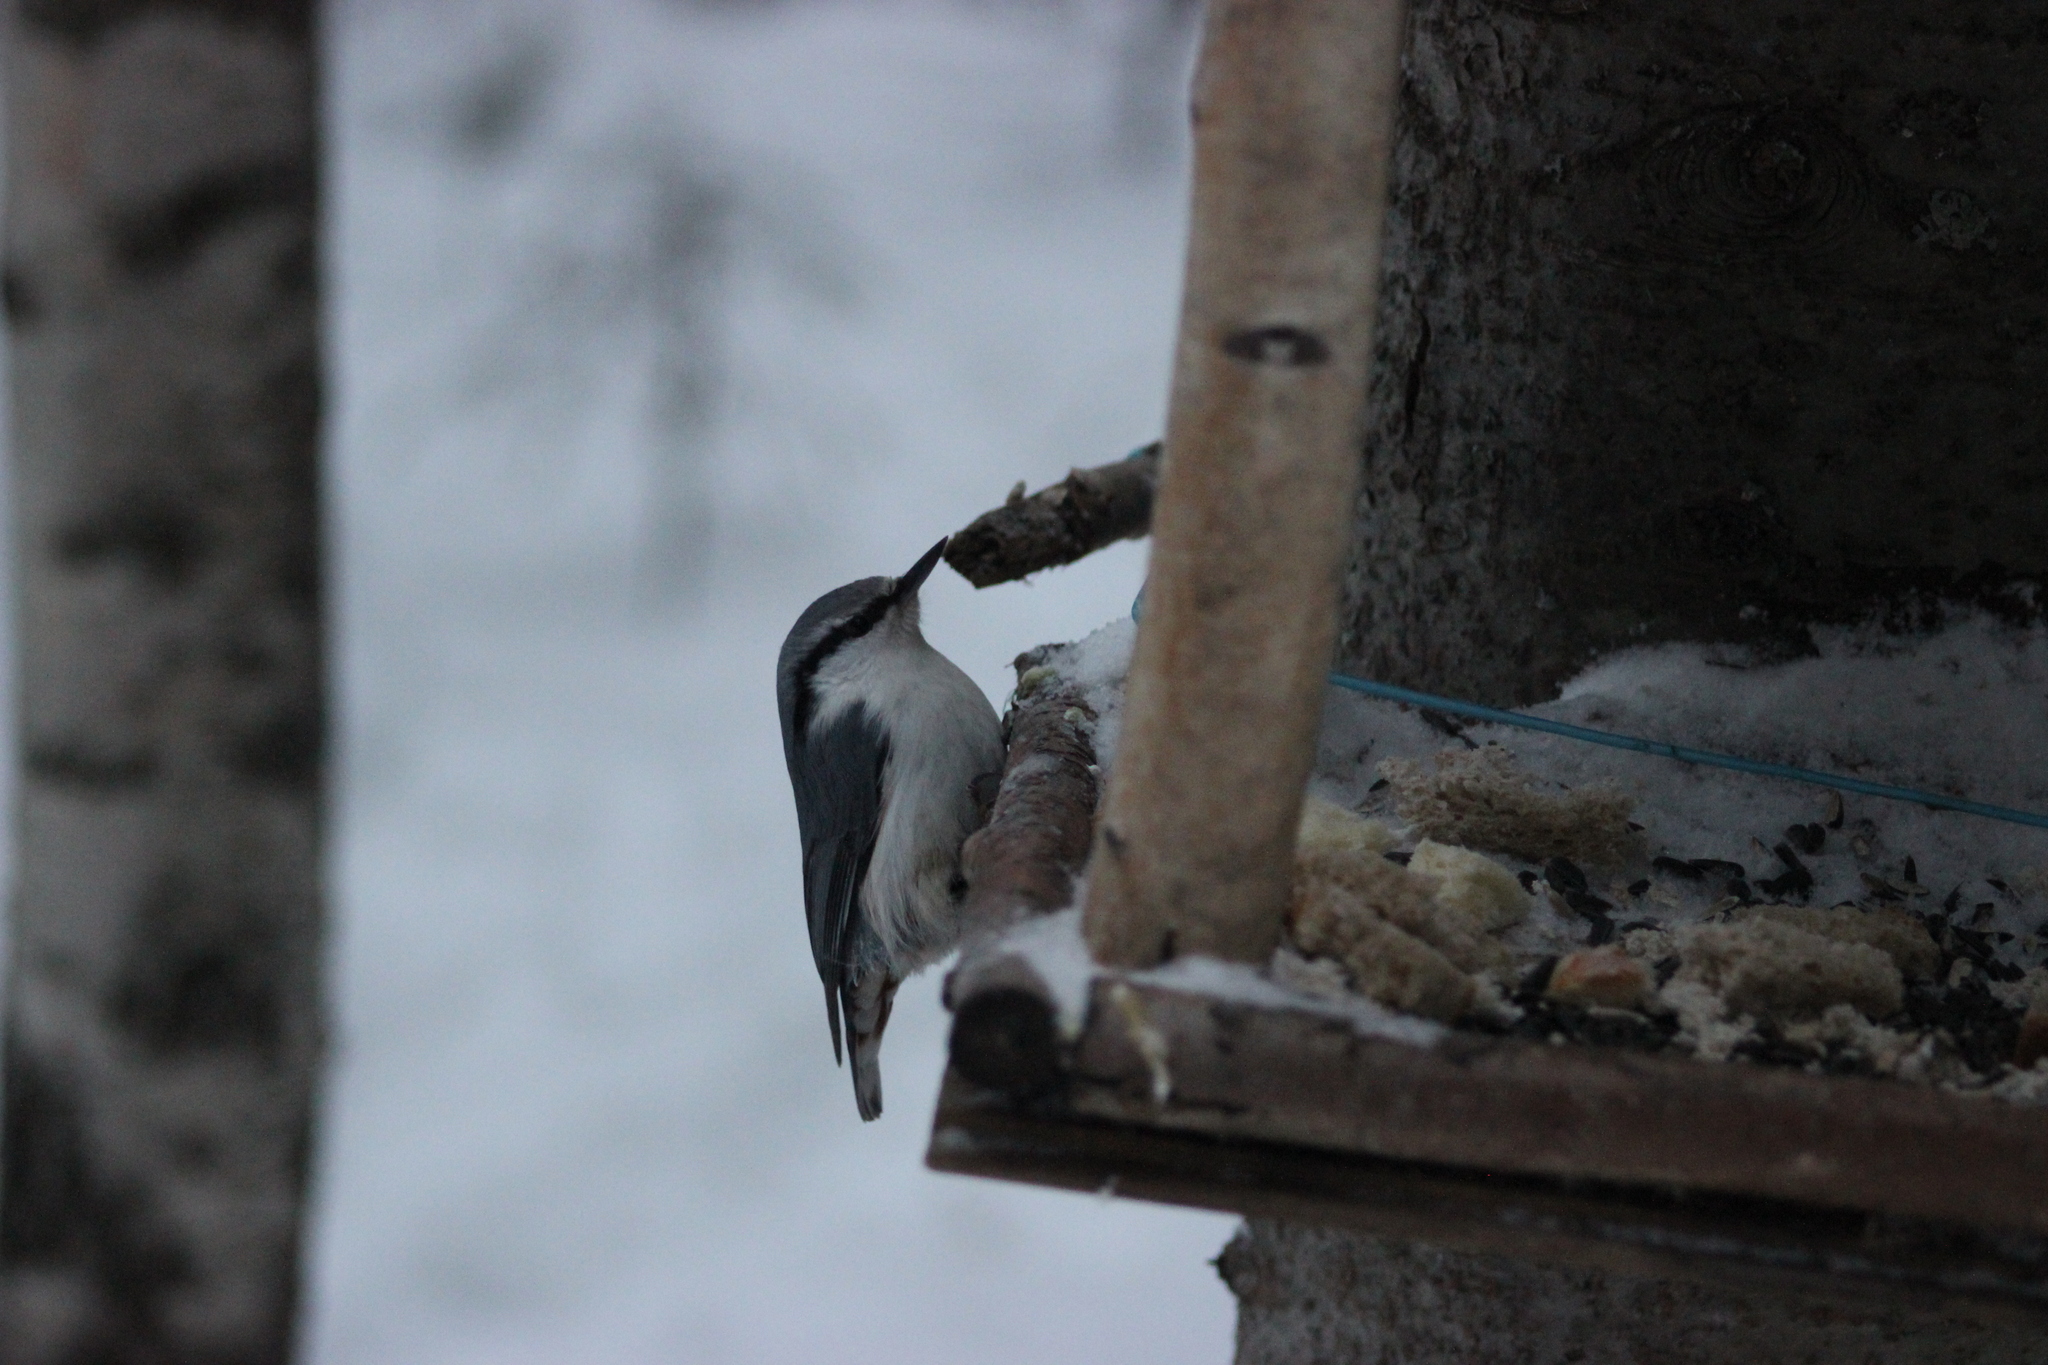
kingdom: Animalia
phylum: Chordata
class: Aves
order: Passeriformes
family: Sittidae
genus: Sitta
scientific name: Sitta europaea
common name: Eurasian nuthatch
